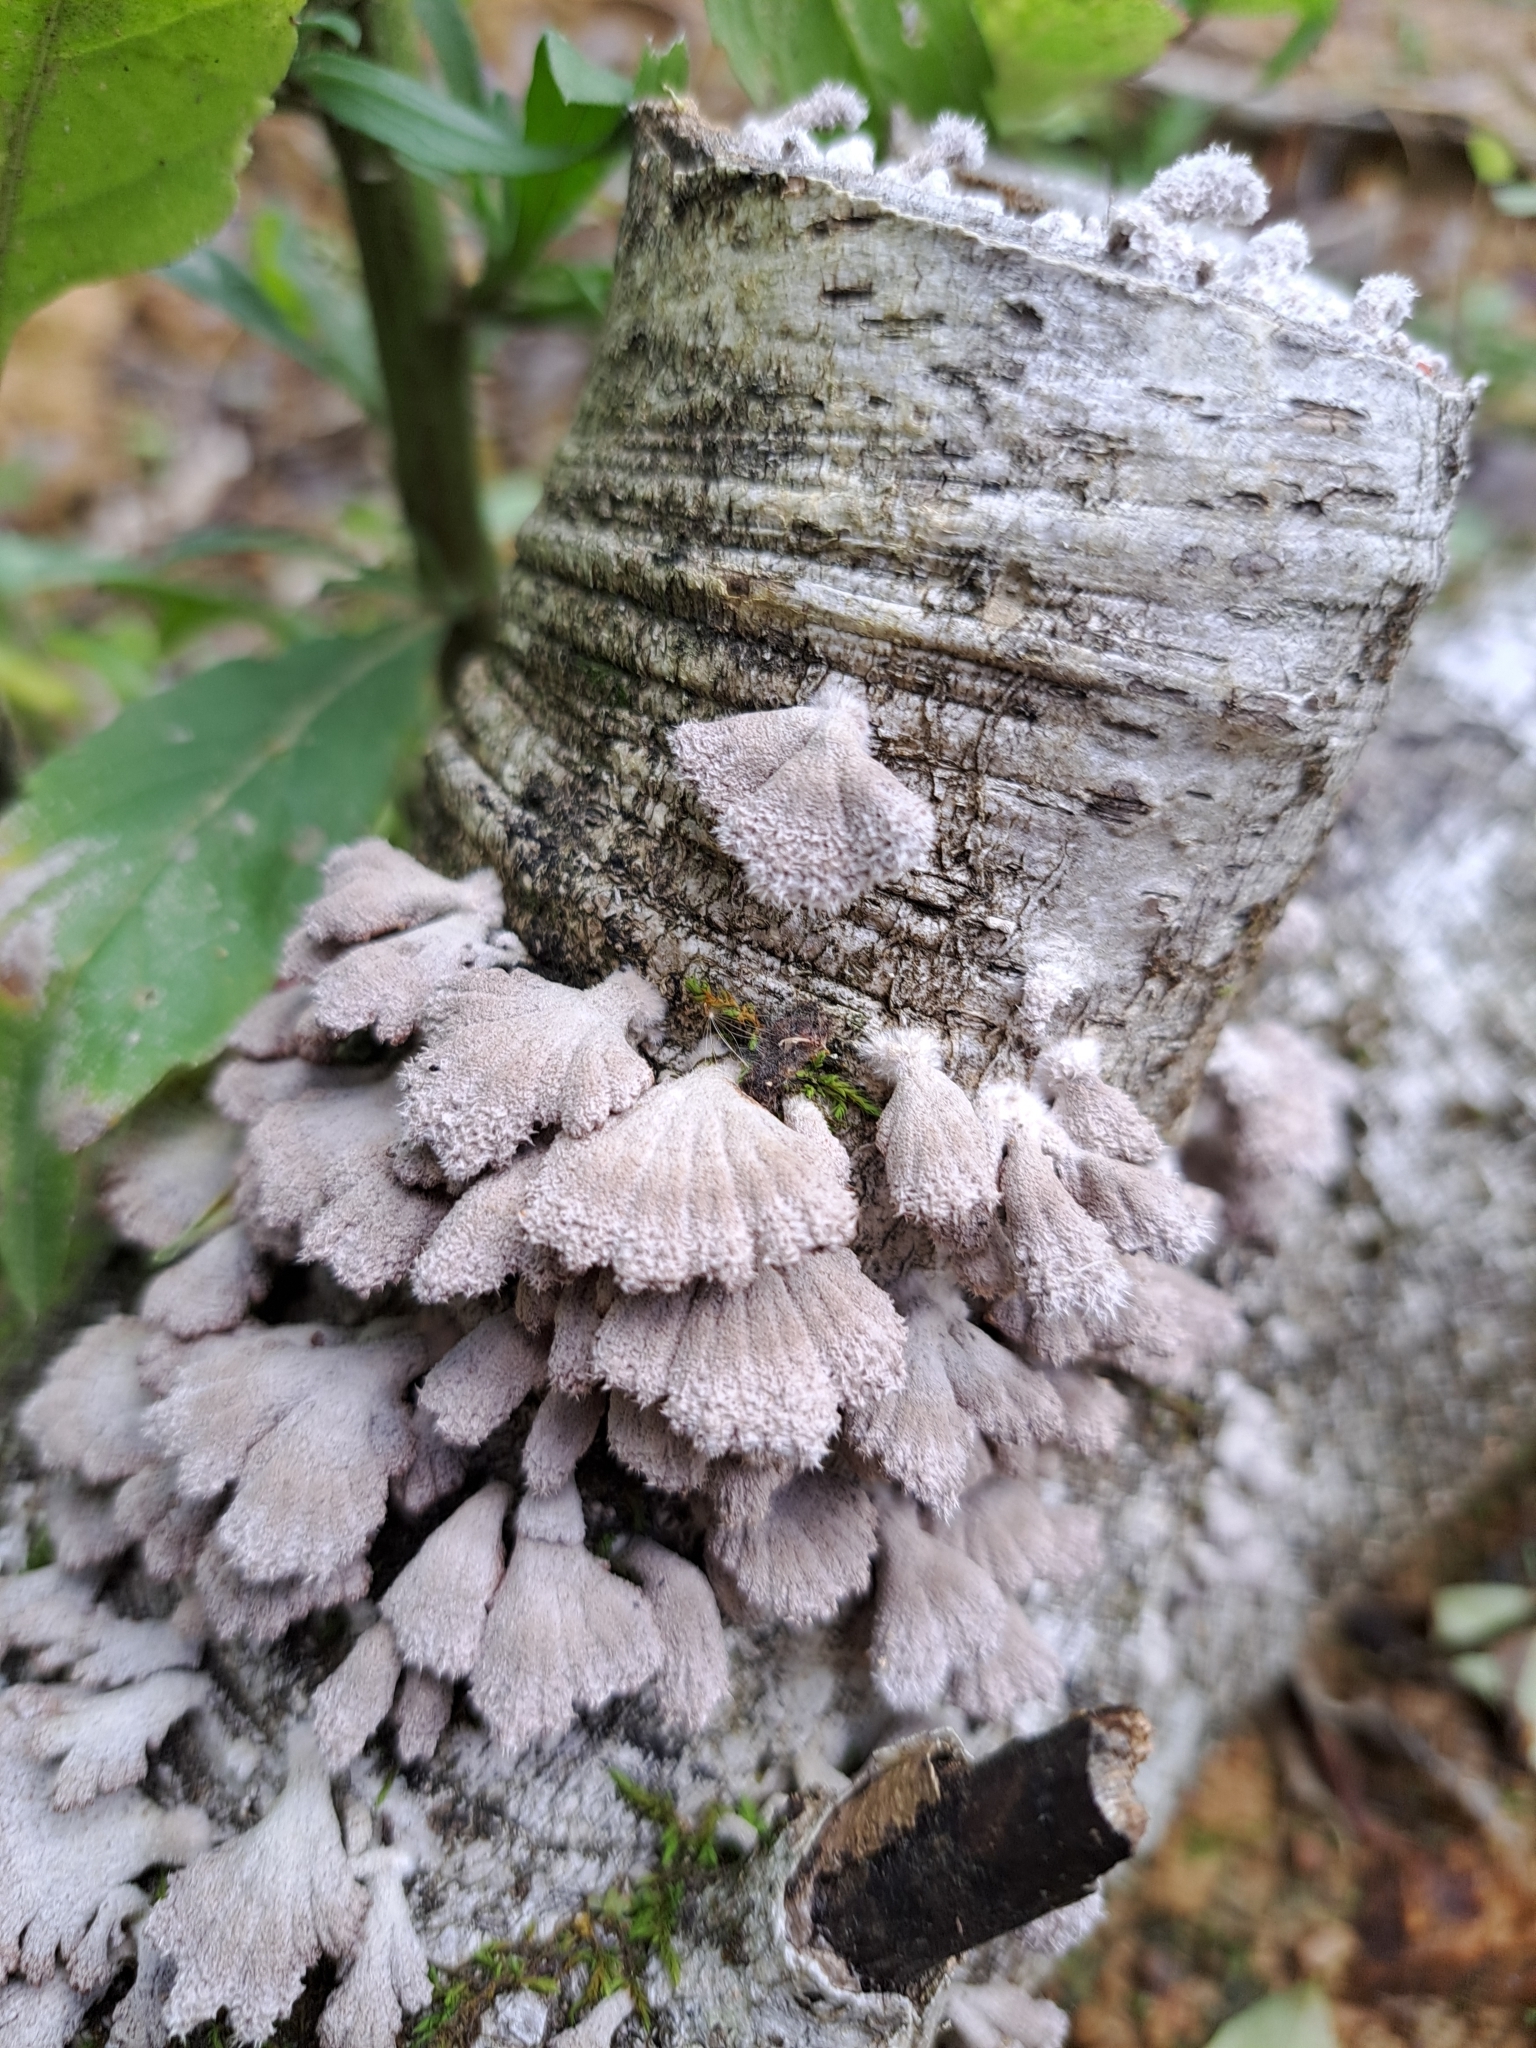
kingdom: Fungi
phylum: Basidiomycota
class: Agaricomycetes
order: Agaricales
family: Schizophyllaceae
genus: Schizophyllum
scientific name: Schizophyllum commune
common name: Common porecrust
